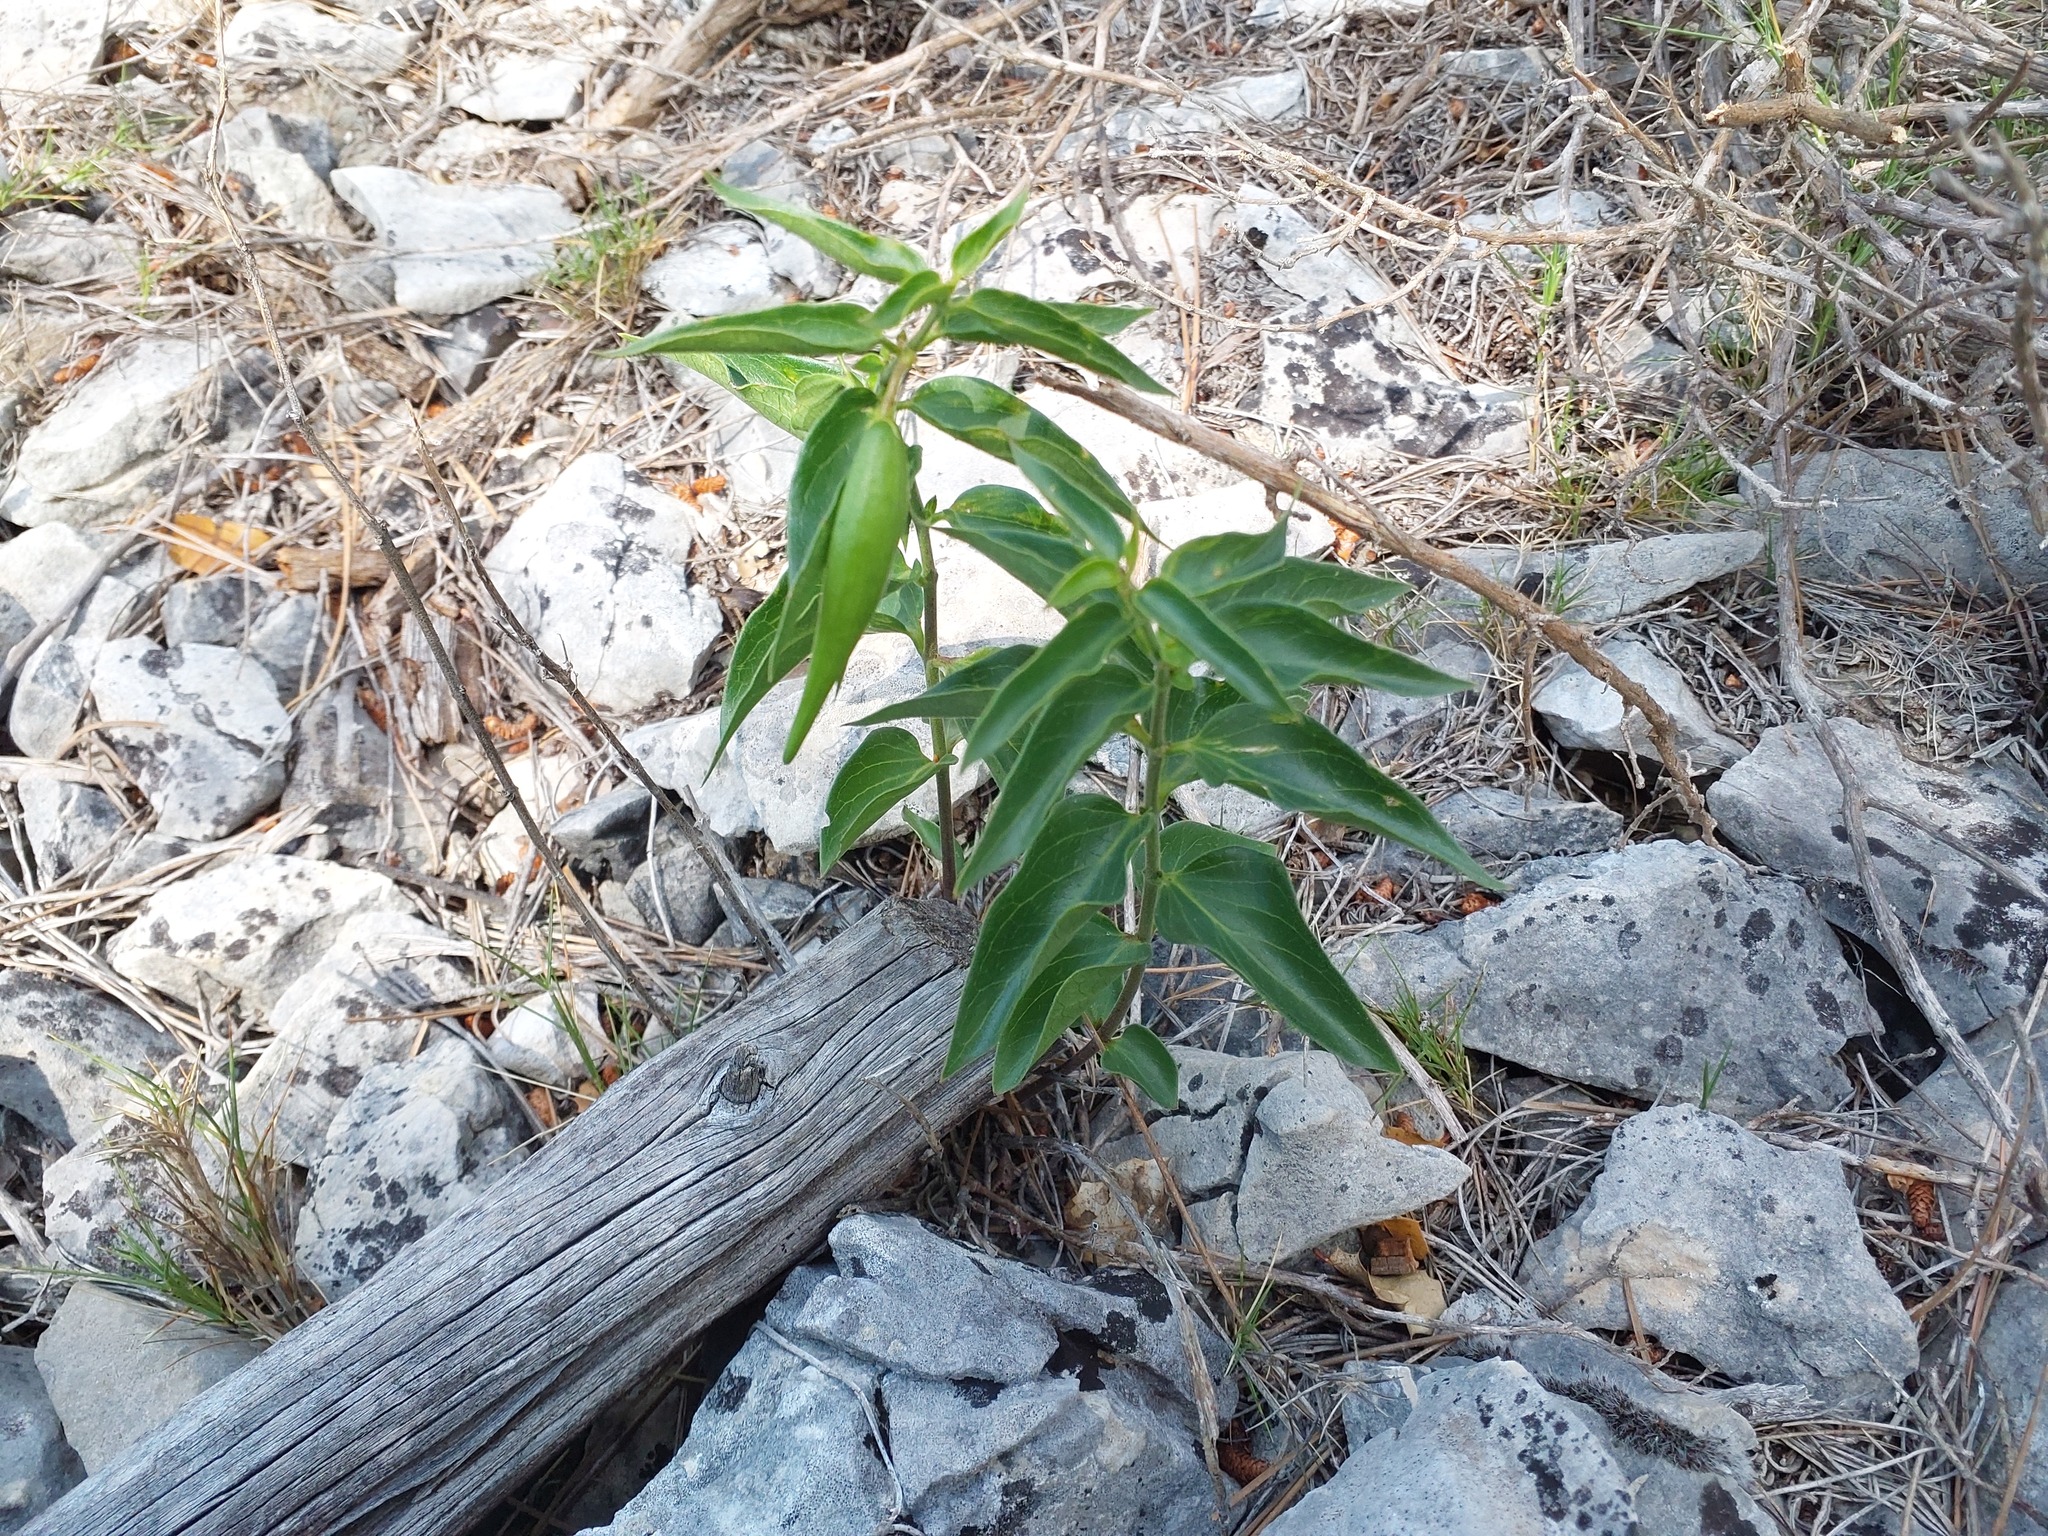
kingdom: Plantae
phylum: Tracheophyta
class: Magnoliopsida
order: Gentianales
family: Apocynaceae
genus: Vincetoxicum
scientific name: Vincetoxicum hirundinaria
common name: White swallowwort
